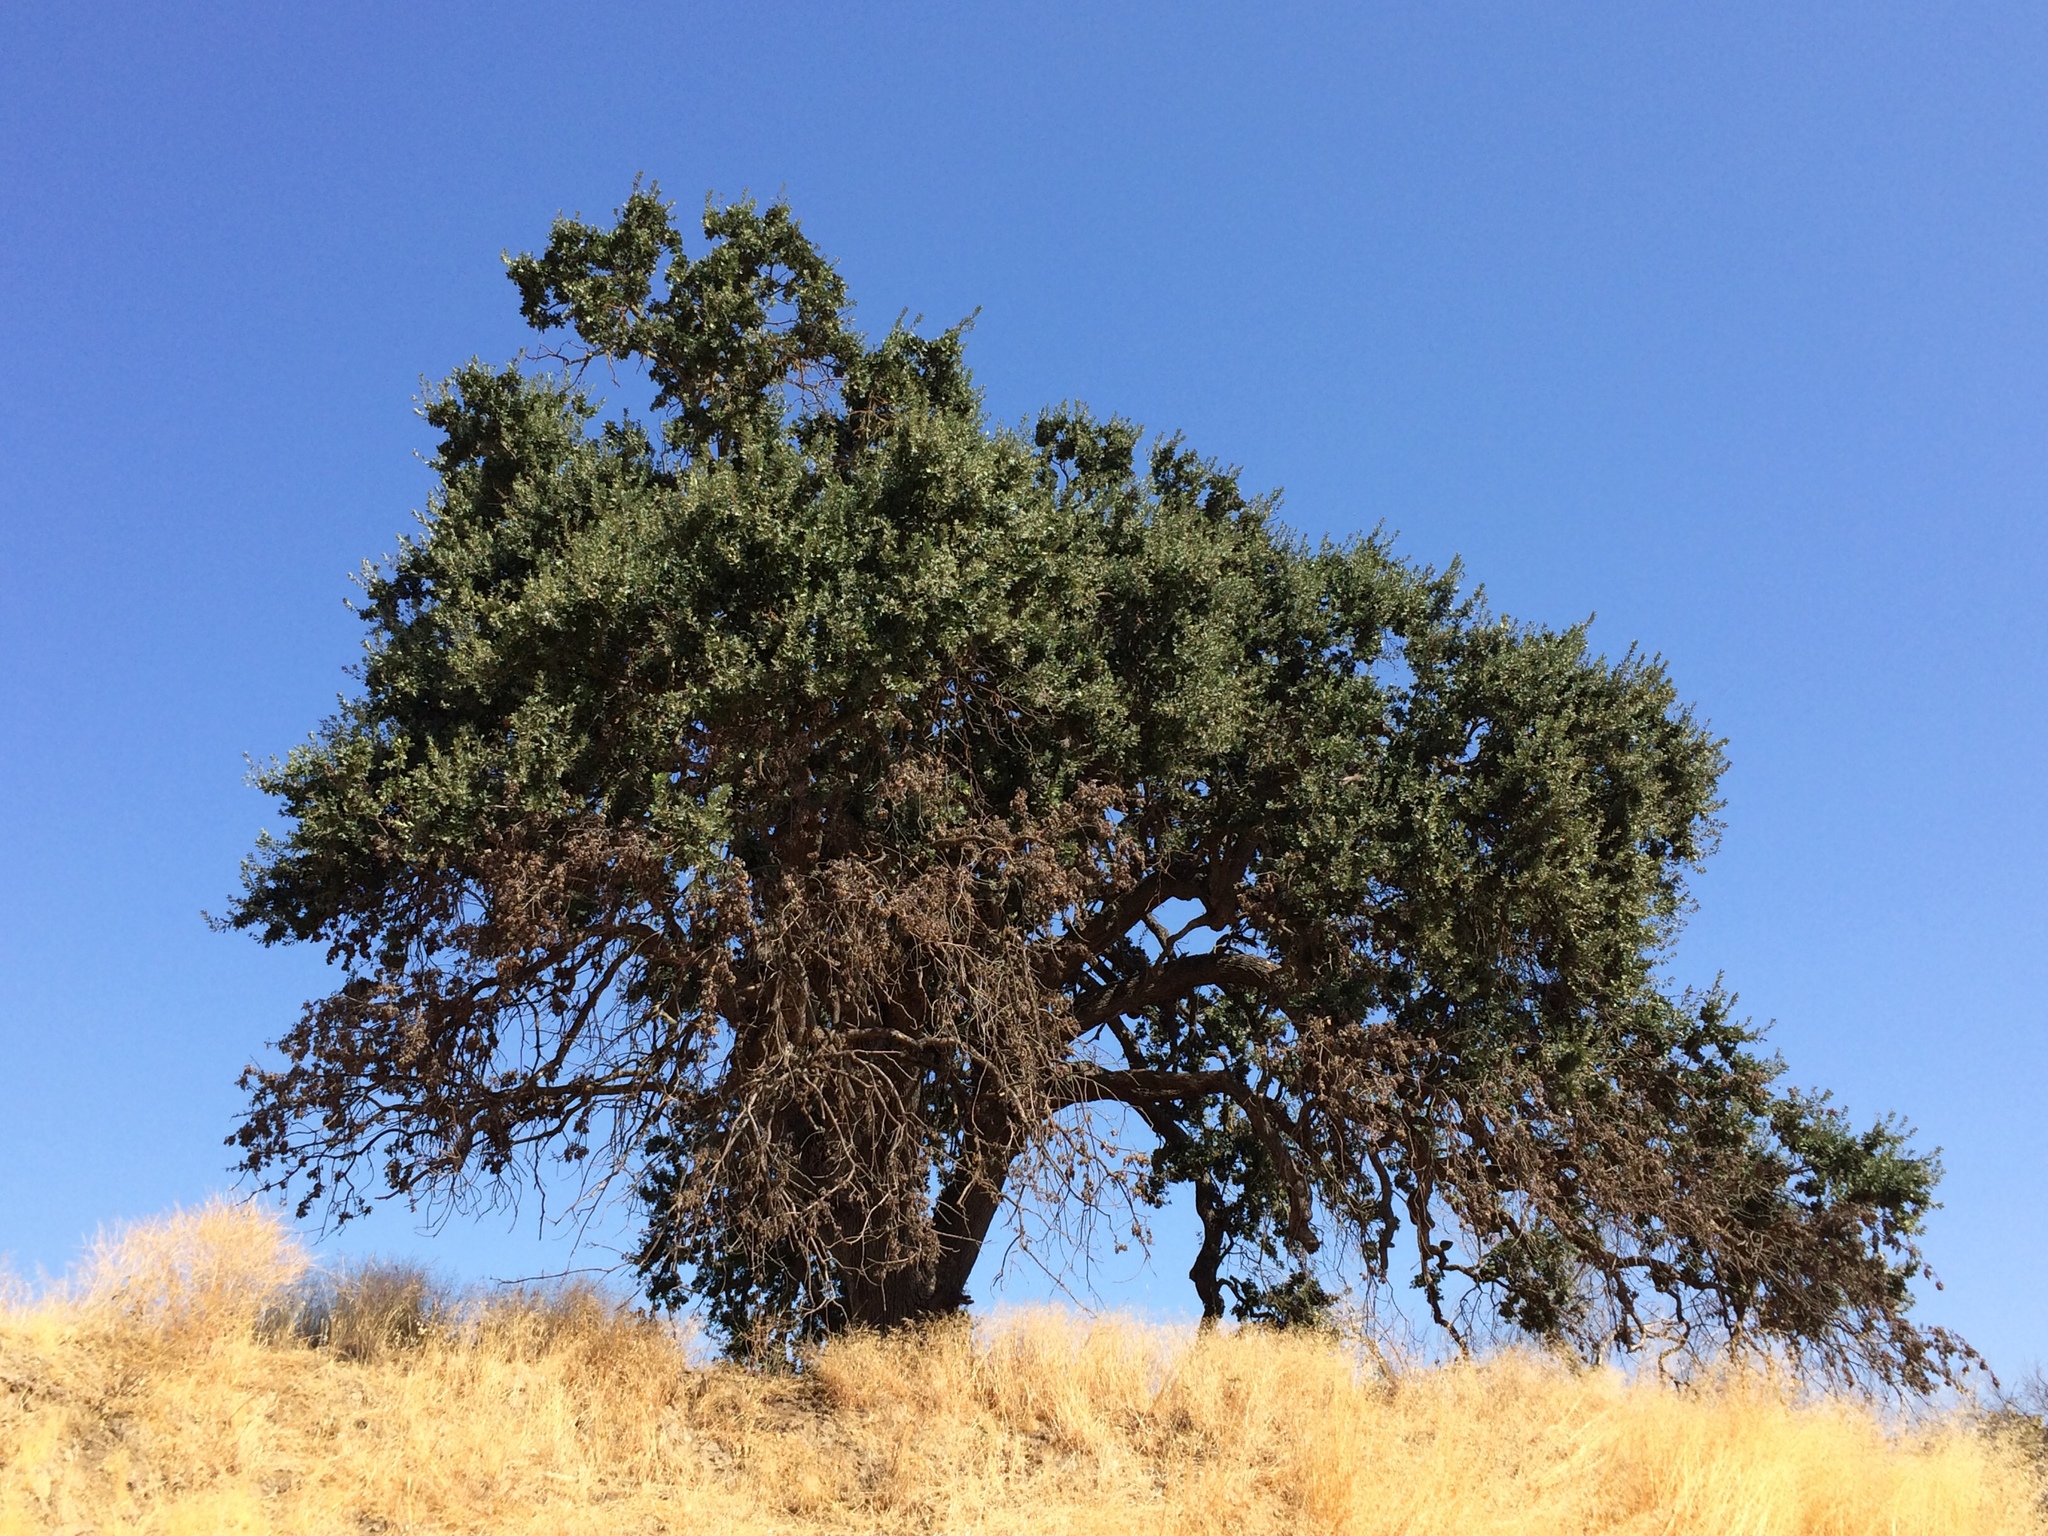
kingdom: Plantae
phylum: Tracheophyta
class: Magnoliopsida
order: Fagales
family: Fagaceae
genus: Quercus
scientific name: Quercus agrifolia
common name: California live oak
